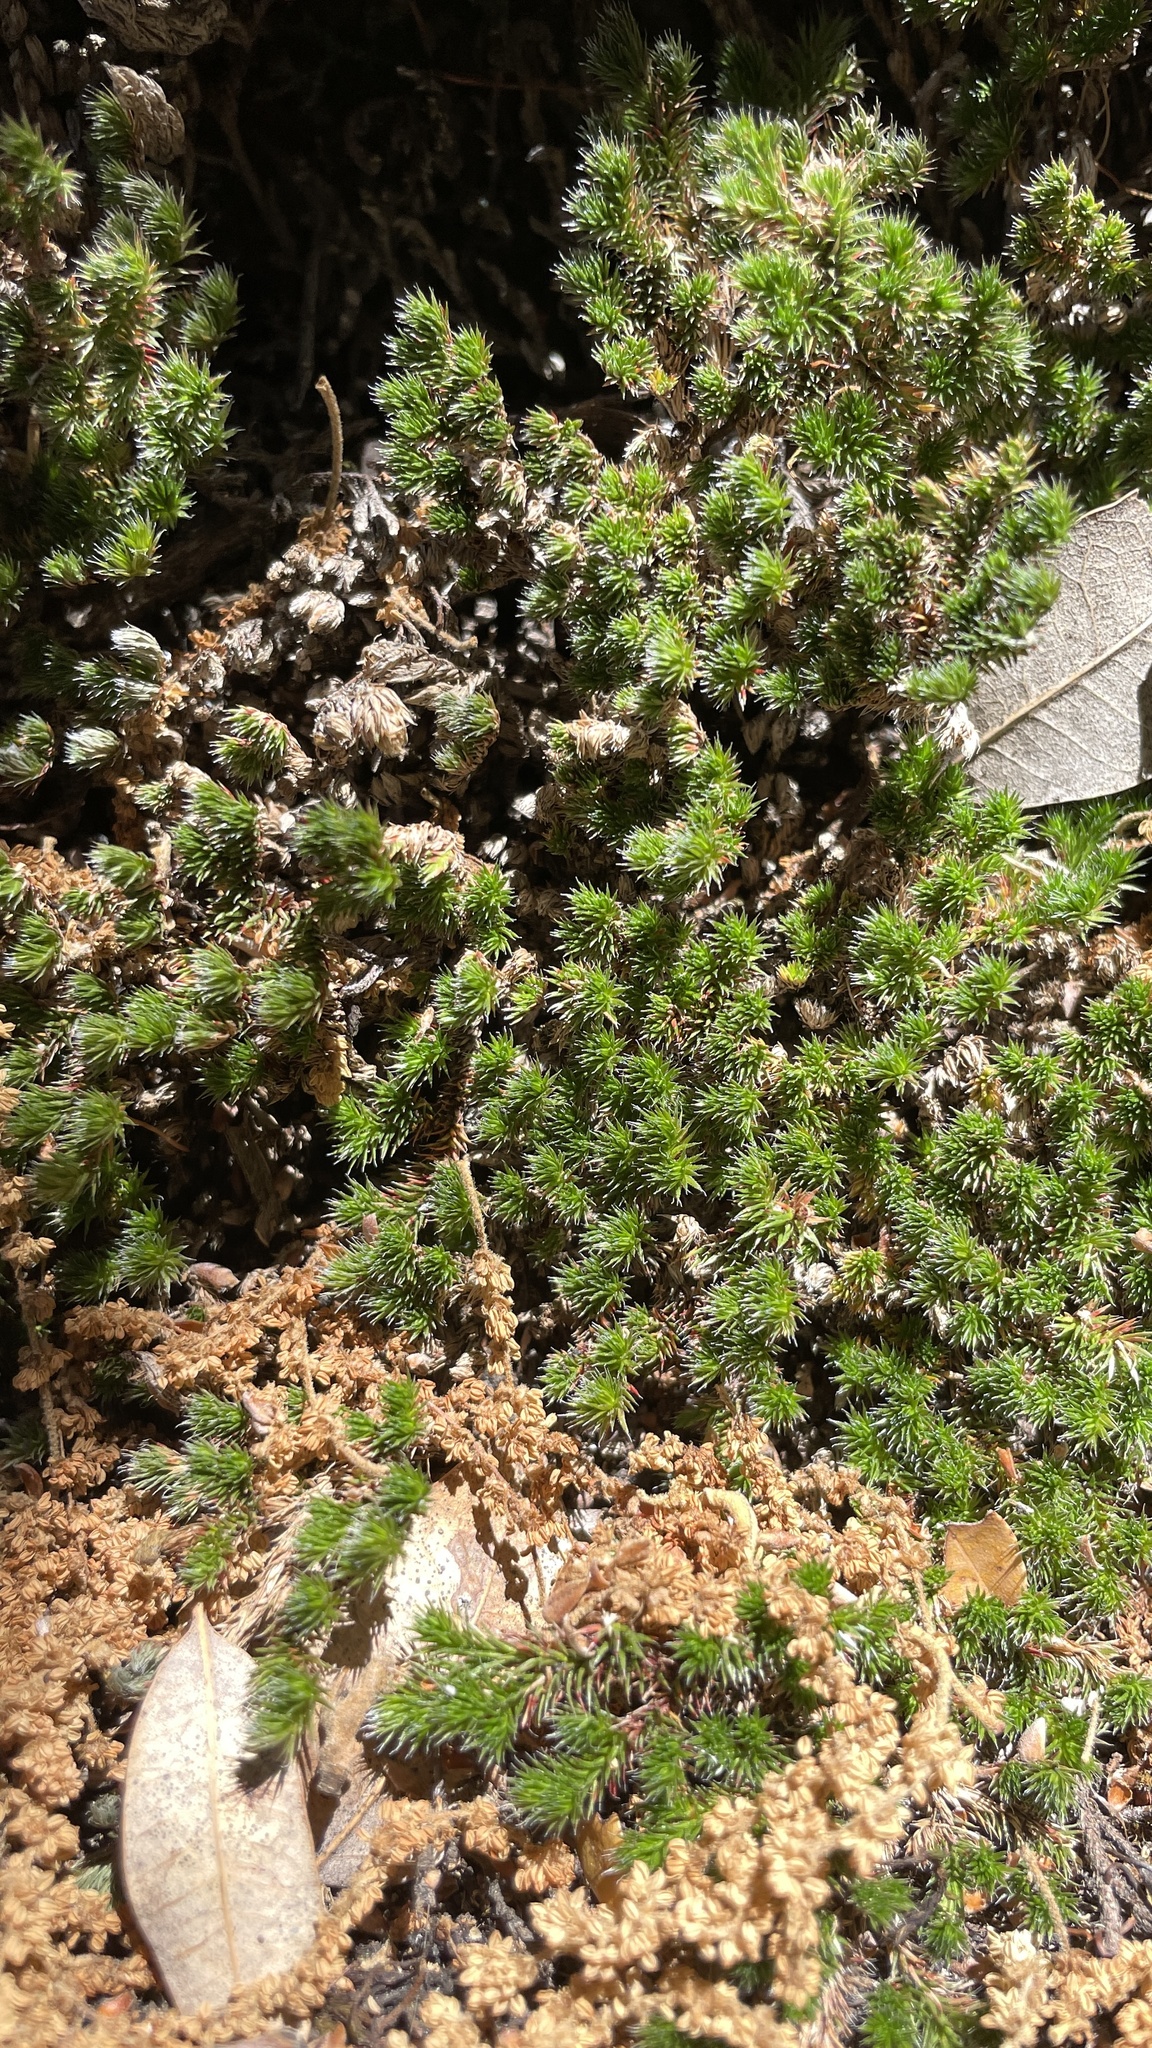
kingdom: Plantae
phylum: Tracheophyta
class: Lycopodiopsida
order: Selaginellales
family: Selaginellaceae
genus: Selaginella
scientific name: Selaginella hansenii
